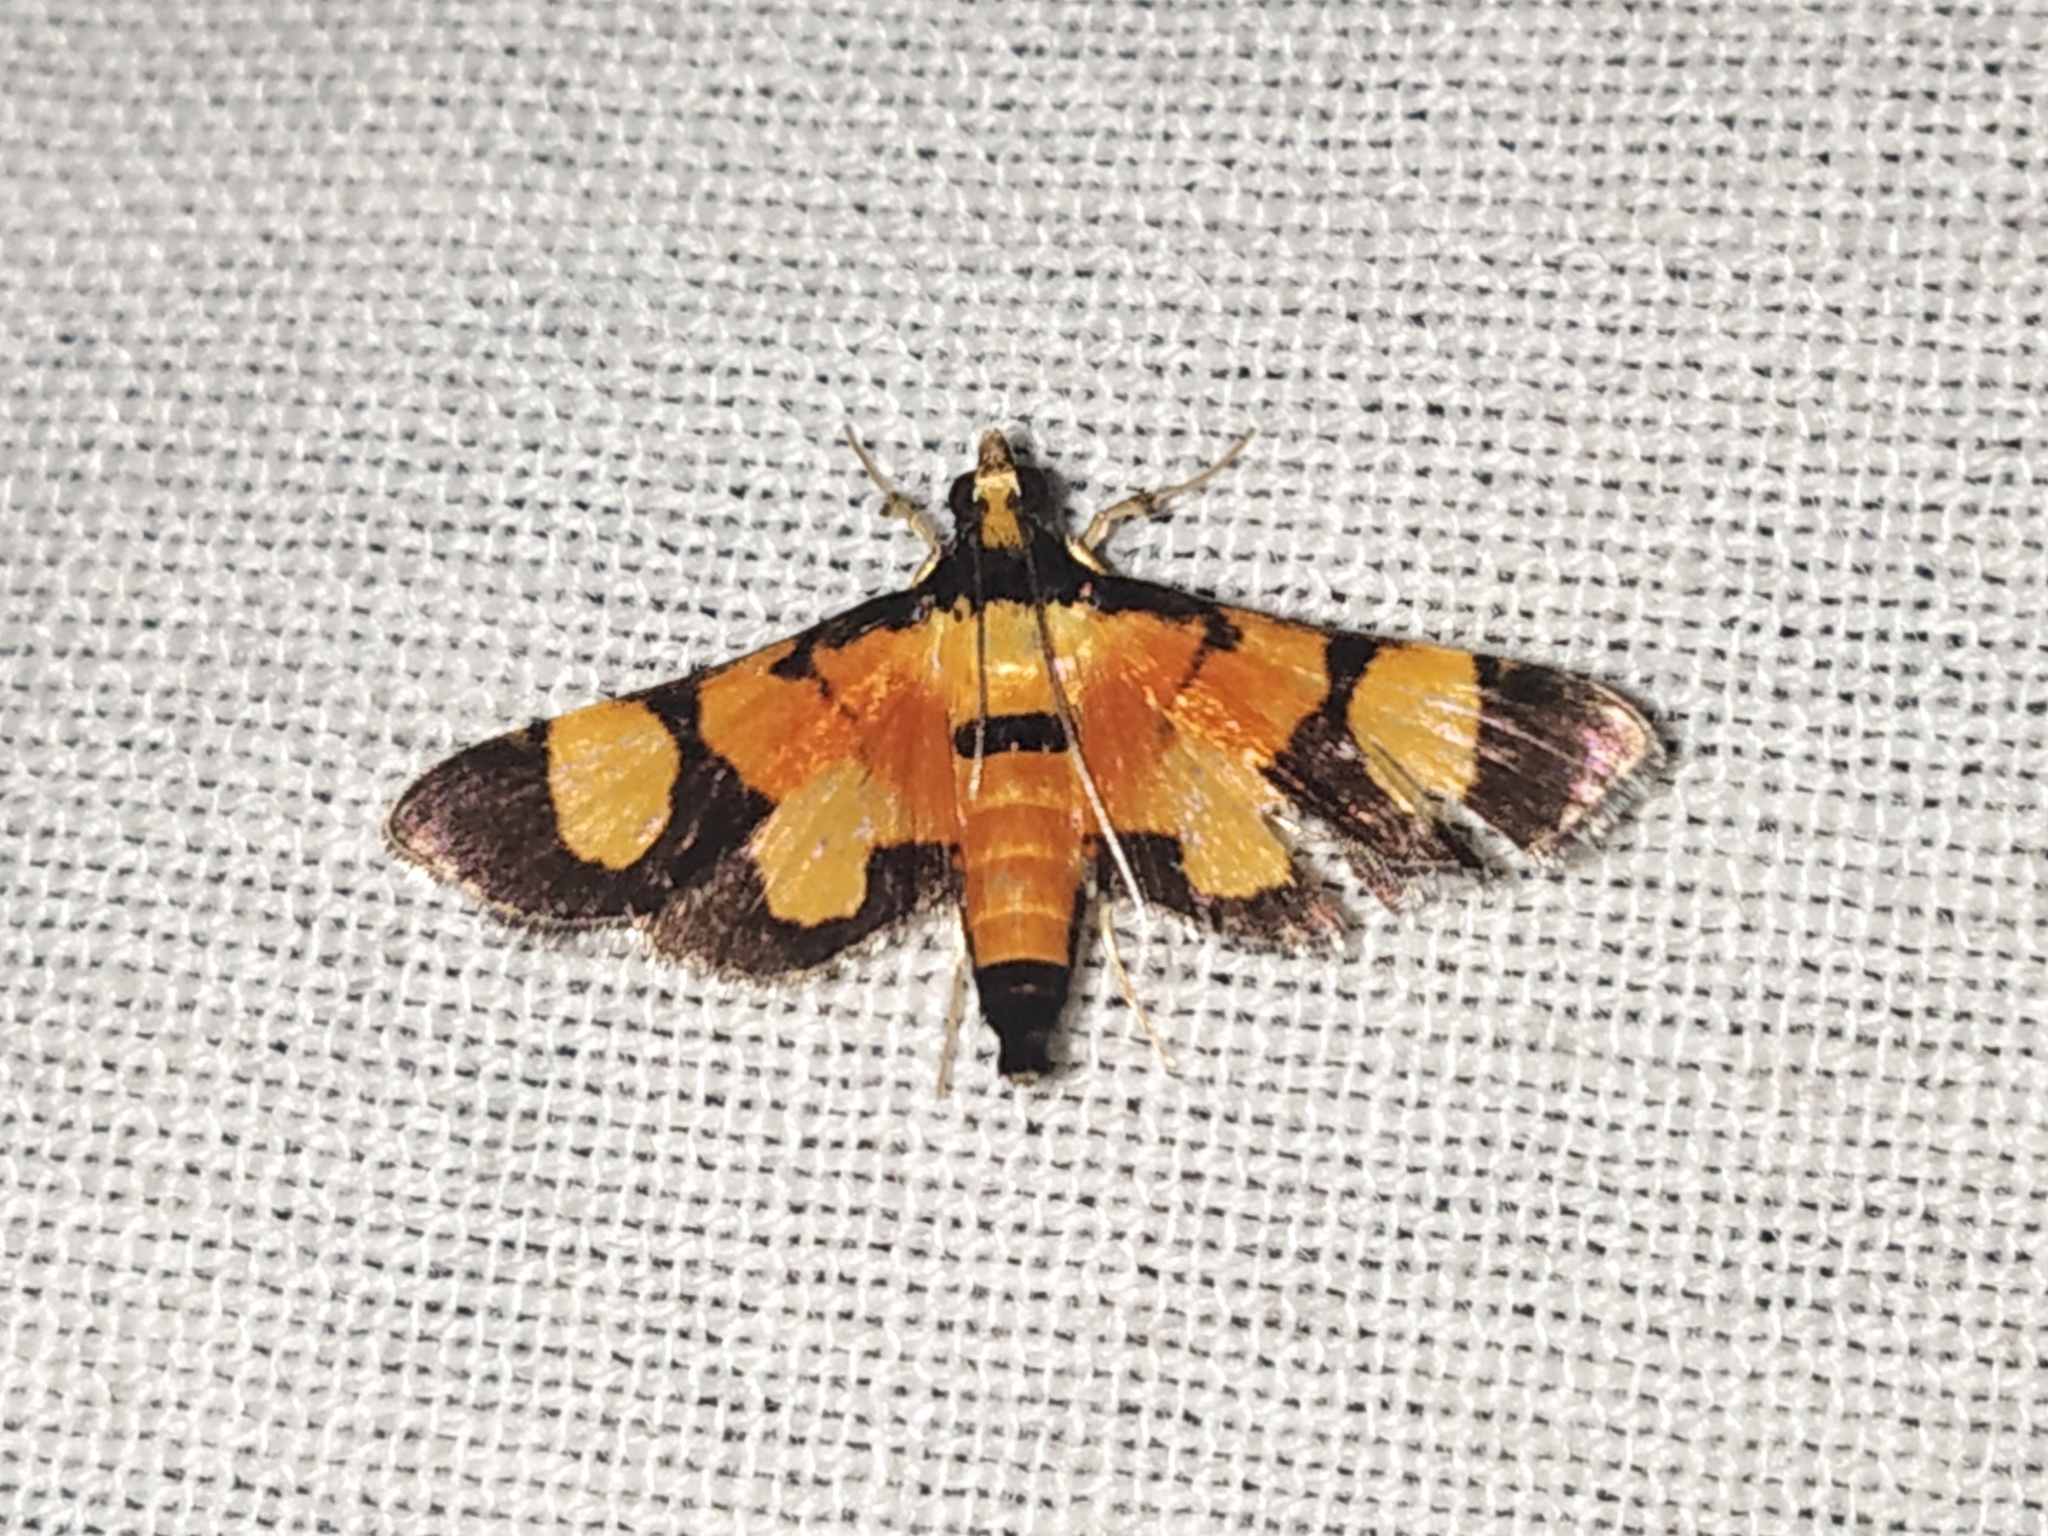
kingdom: Animalia
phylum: Arthropoda
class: Insecta
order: Lepidoptera
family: Crambidae
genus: Aethaloessa
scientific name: Aethaloessa calidalis
